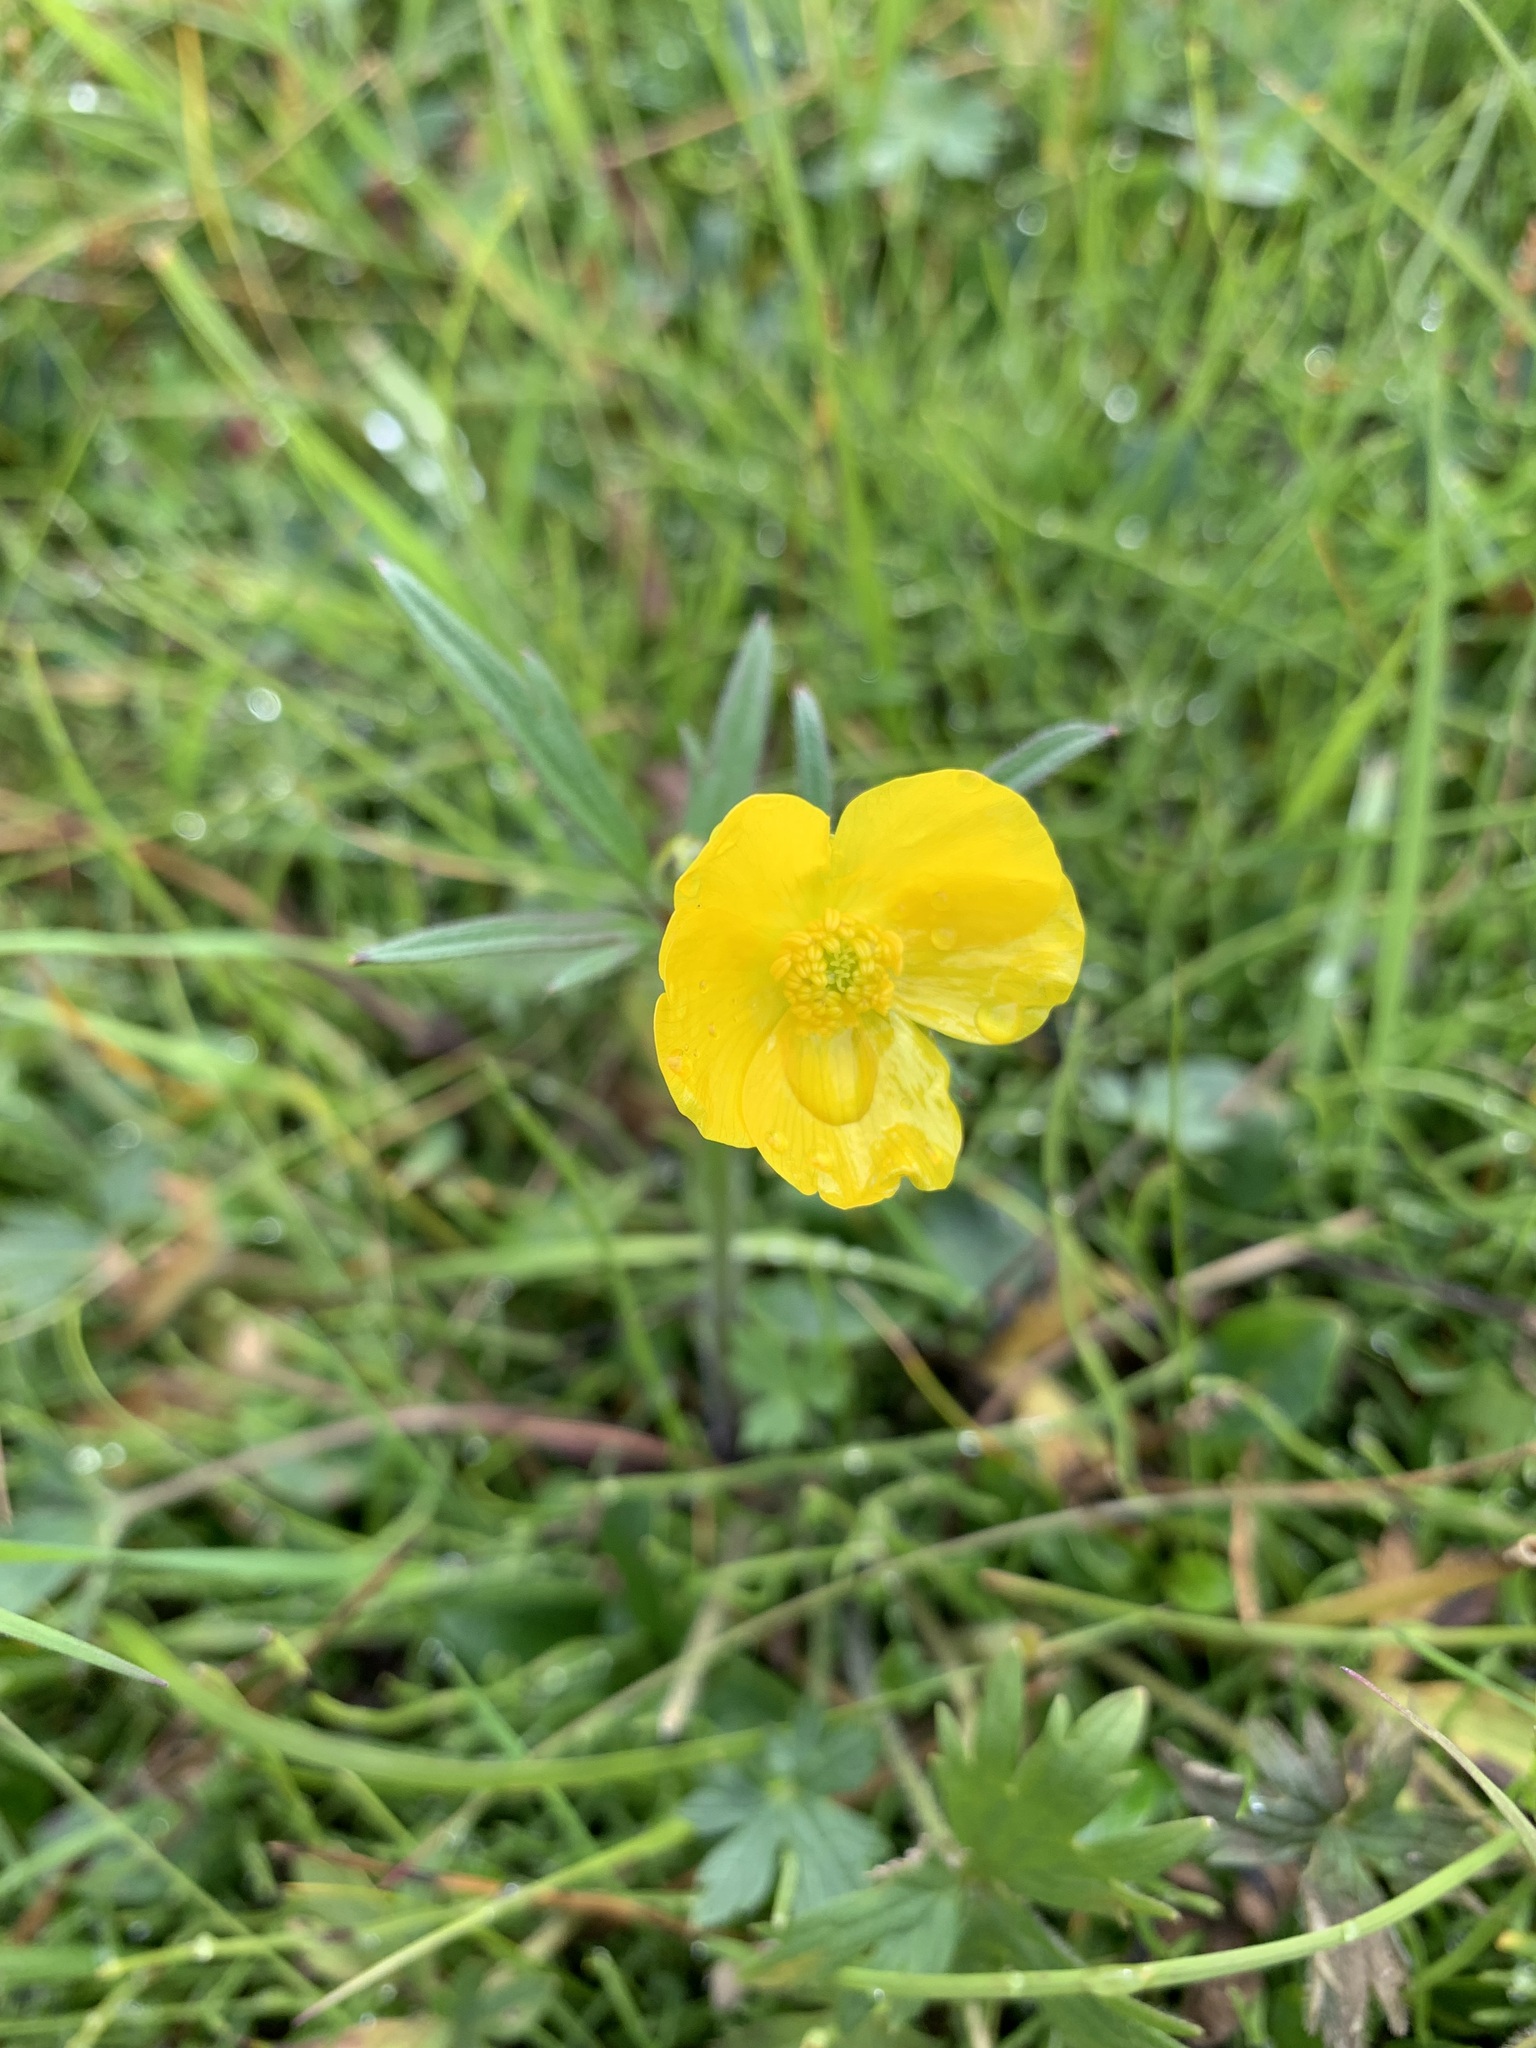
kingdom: Plantae
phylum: Tracheophyta
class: Magnoliopsida
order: Ranunculales
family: Ranunculaceae
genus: Ranunculus
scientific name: Ranunculus propinquus
